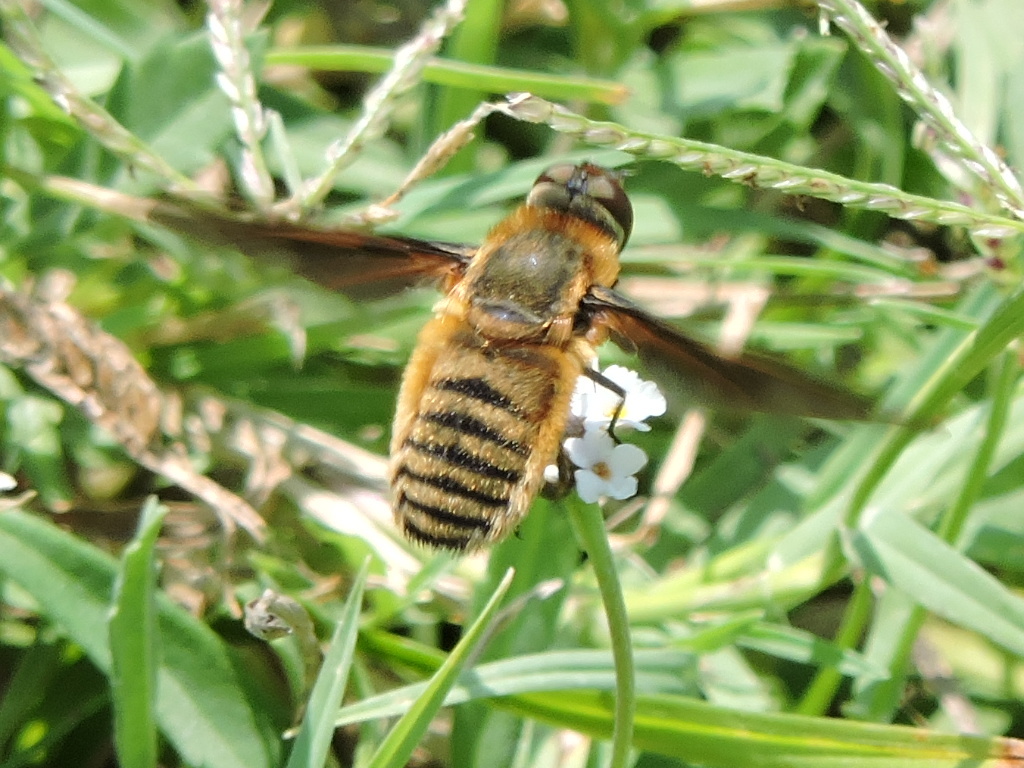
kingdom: Animalia
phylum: Arthropoda
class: Insecta
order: Diptera
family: Bombyliidae
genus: Poecilanthrax
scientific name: Poecilanthrax lucifer
